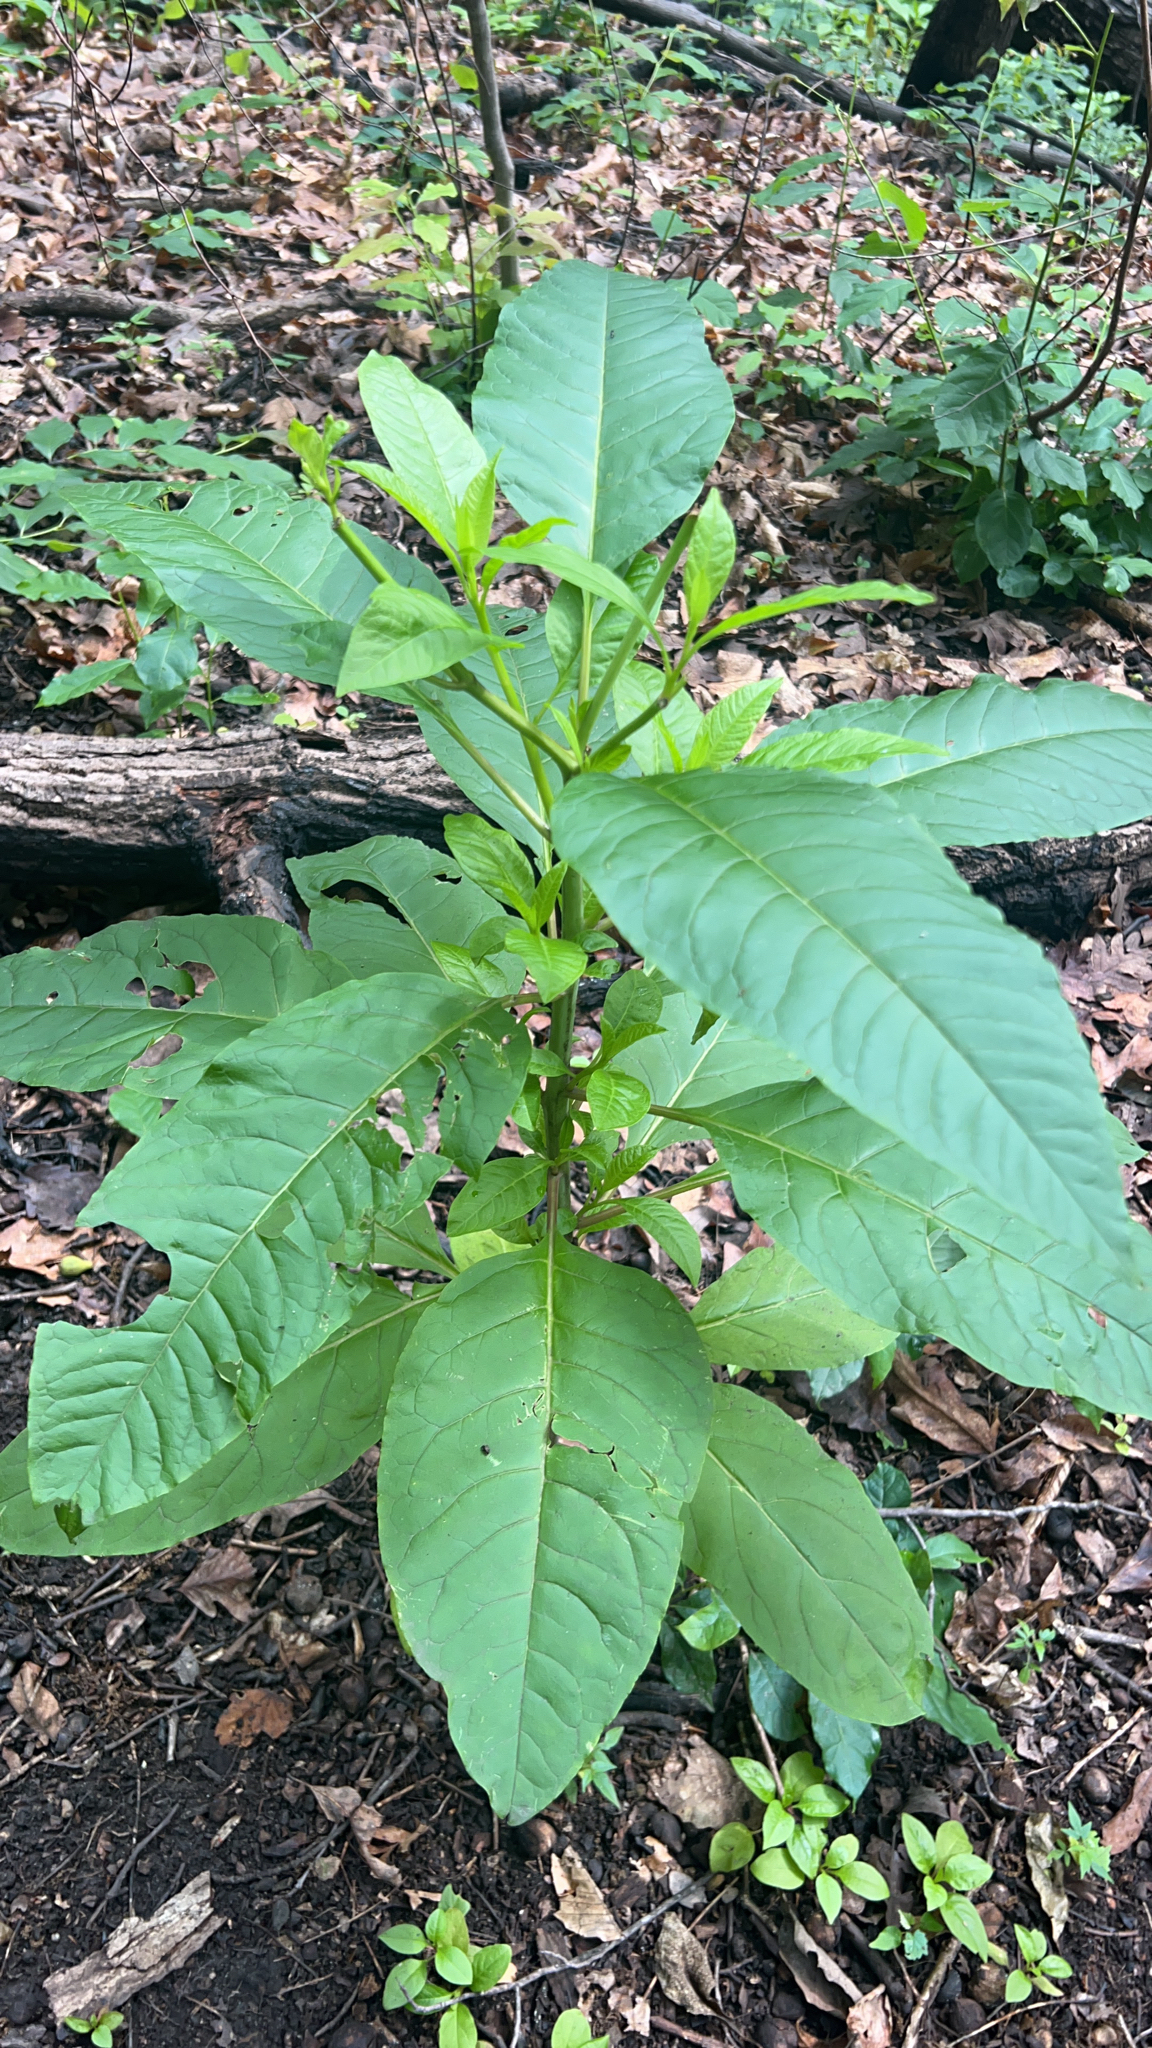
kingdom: Plantae
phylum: Tracheophyta
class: Magnoliopsida
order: Caryophyllales
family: Phytolaccaceae
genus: Phytolacca
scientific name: Phytolacca americana
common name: American pokeweed
